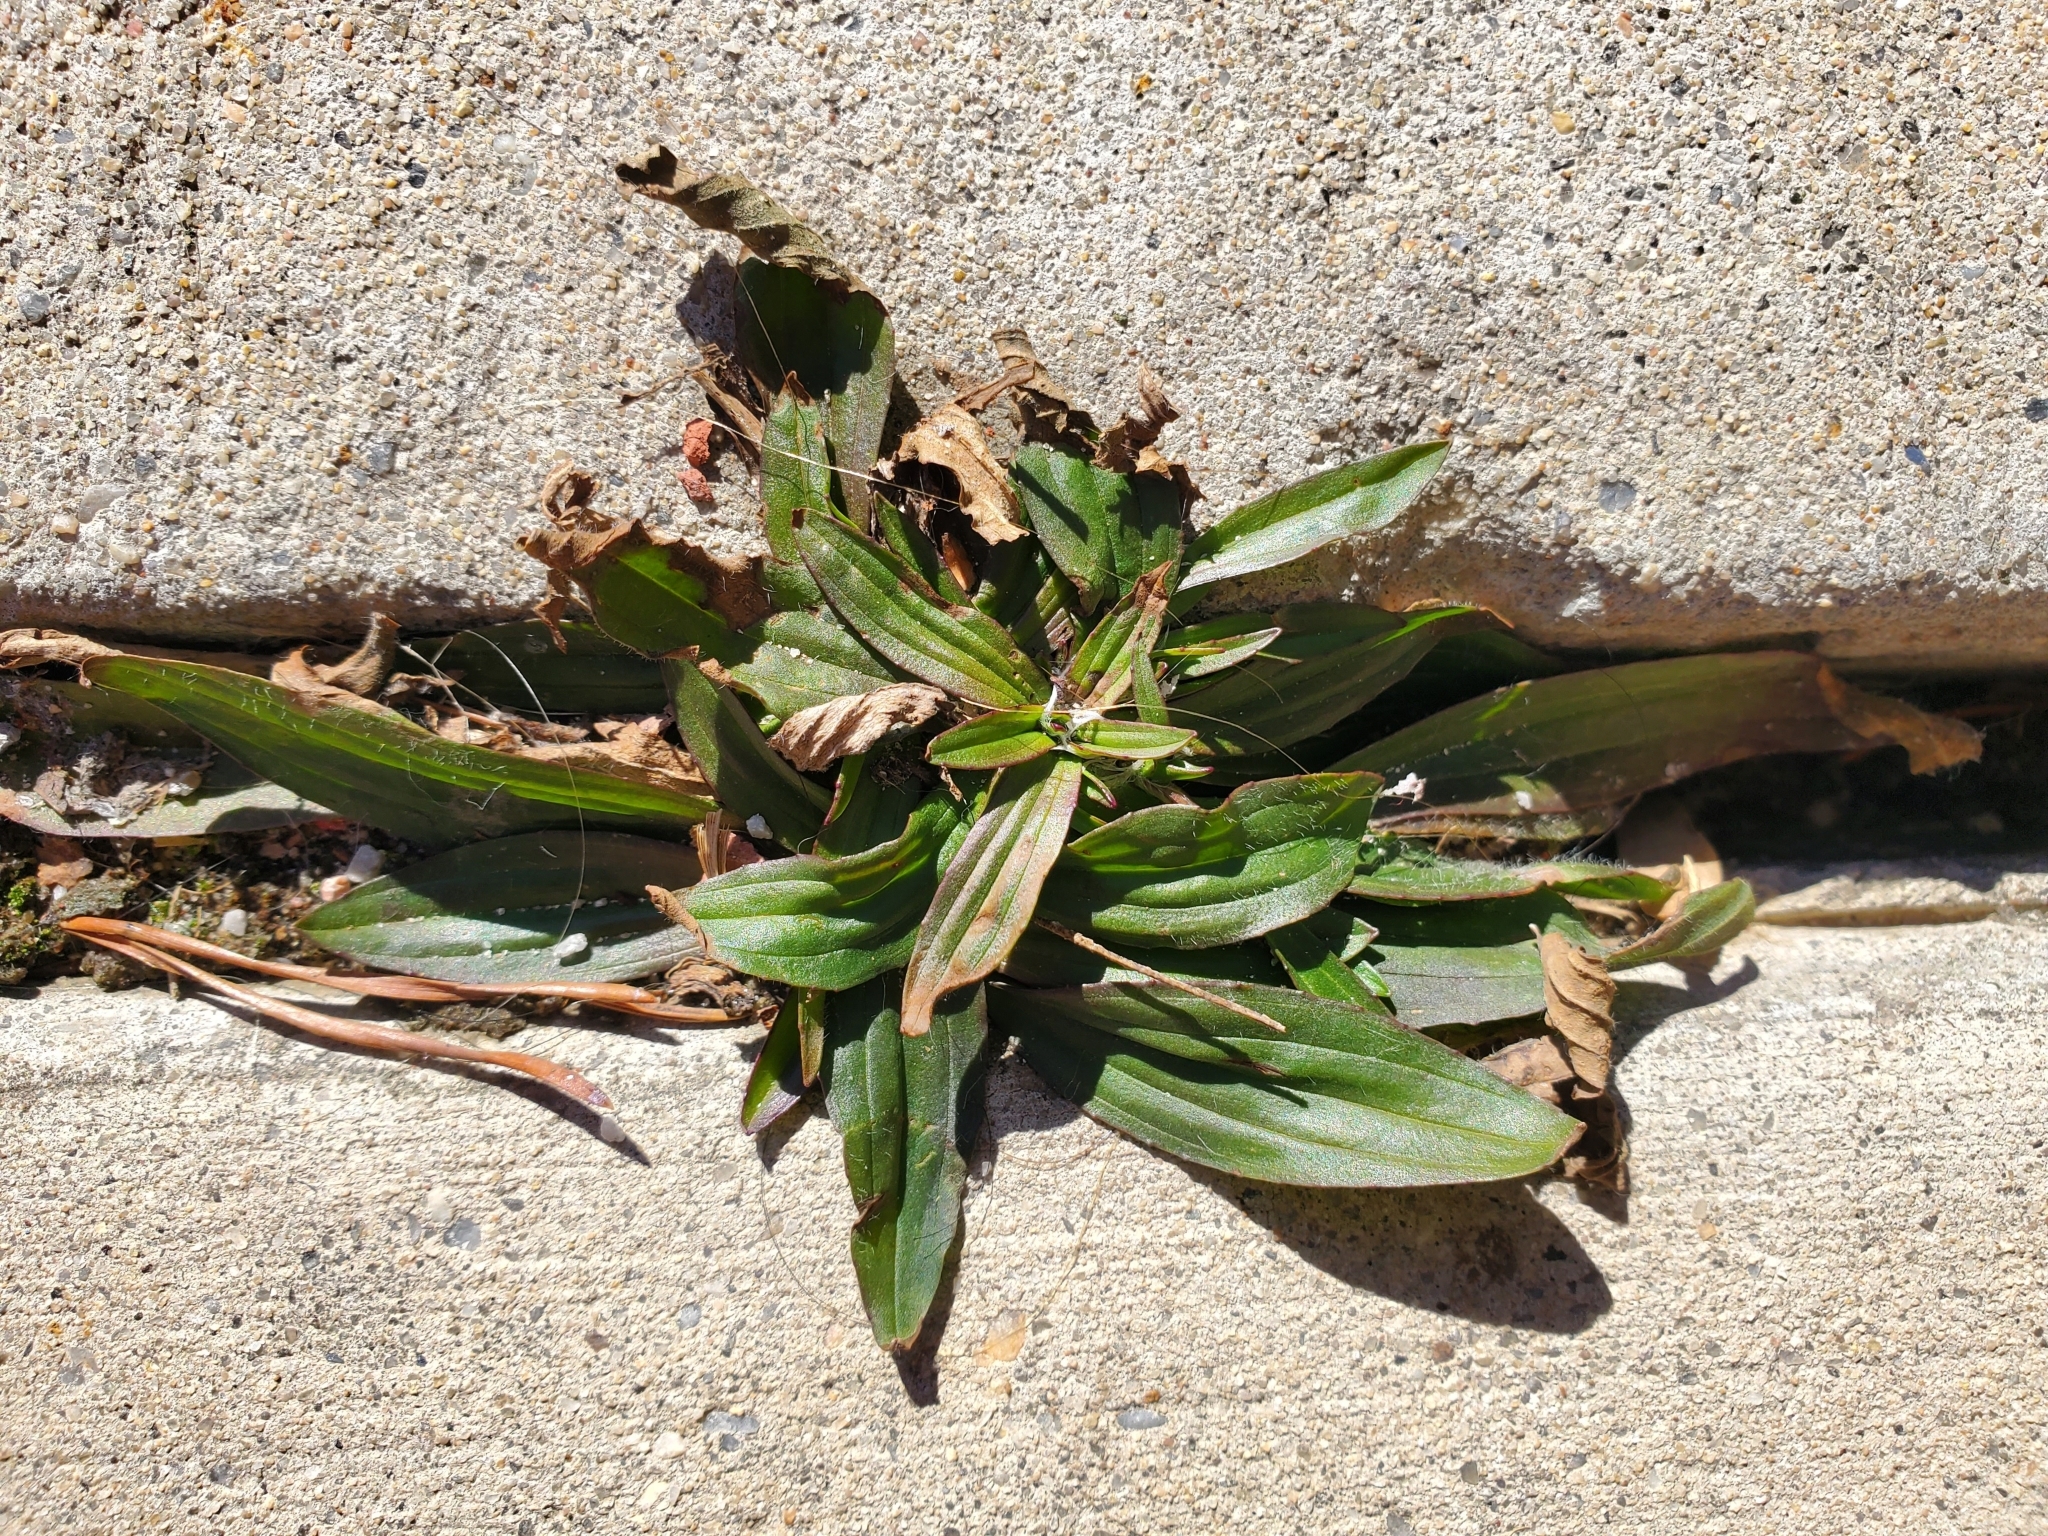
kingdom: Plantae
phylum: Tracheophyta
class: Magnoliopsida
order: Lamiales
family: Plantaginaceae
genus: Plantago
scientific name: Plantago lanceolata
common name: Ribwort plantain
